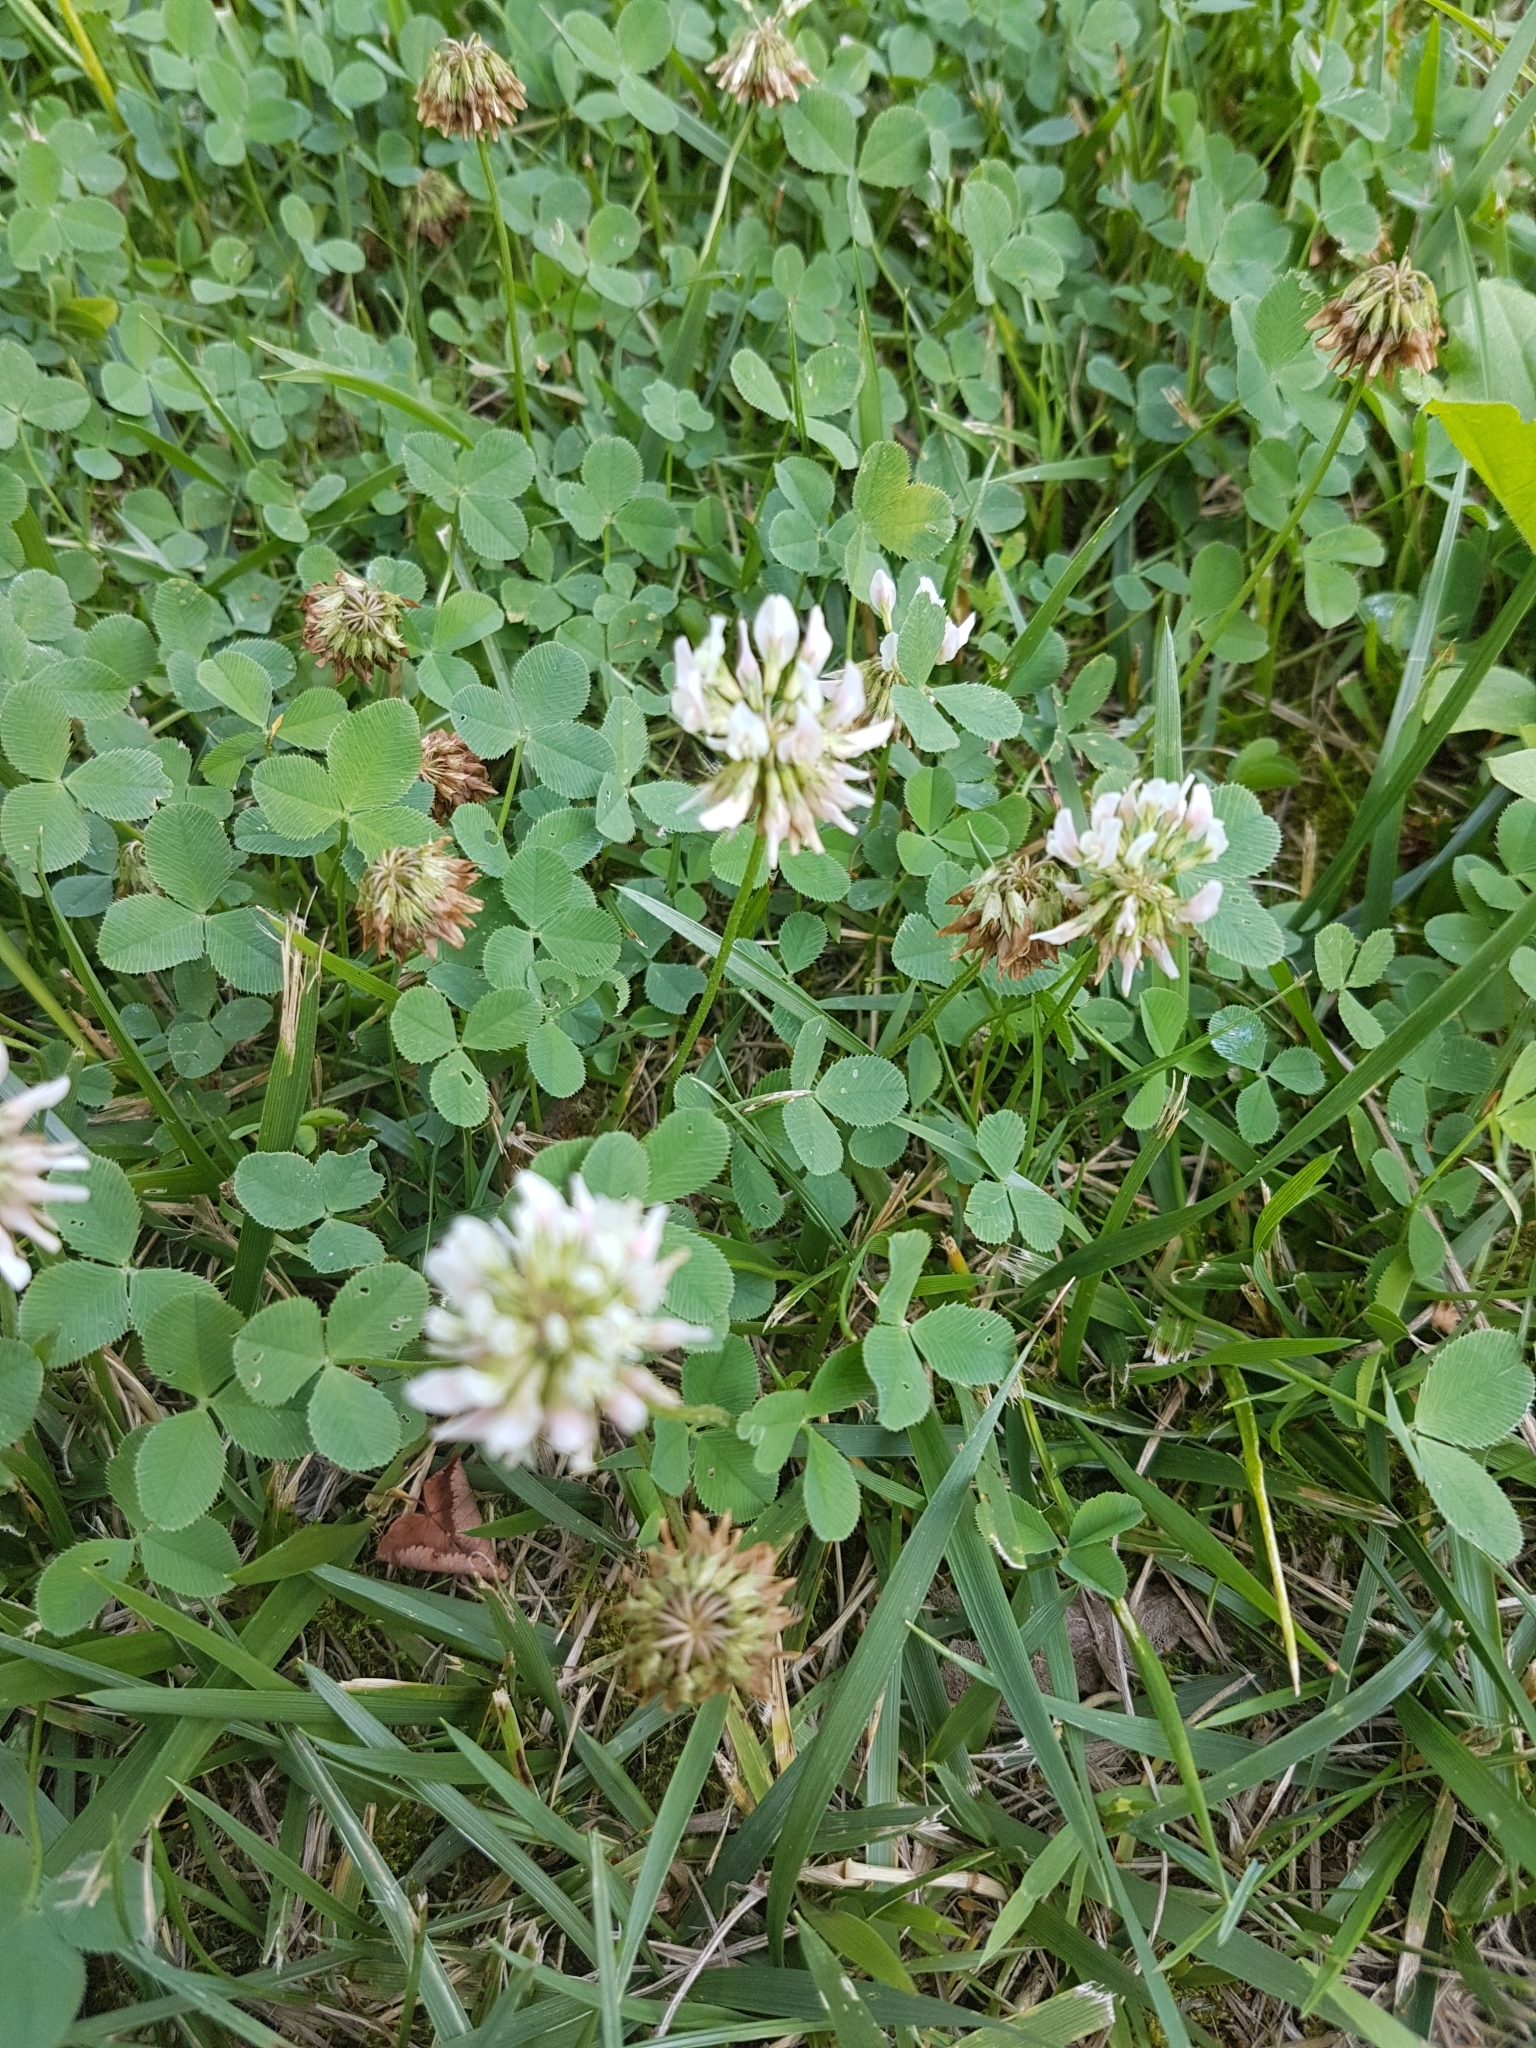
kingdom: Plantae
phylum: Tracheophyta
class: Magnoliopsida
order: Fabales
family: Fabaceae
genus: Trifolium
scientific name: Trifolium repens
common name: White clover
